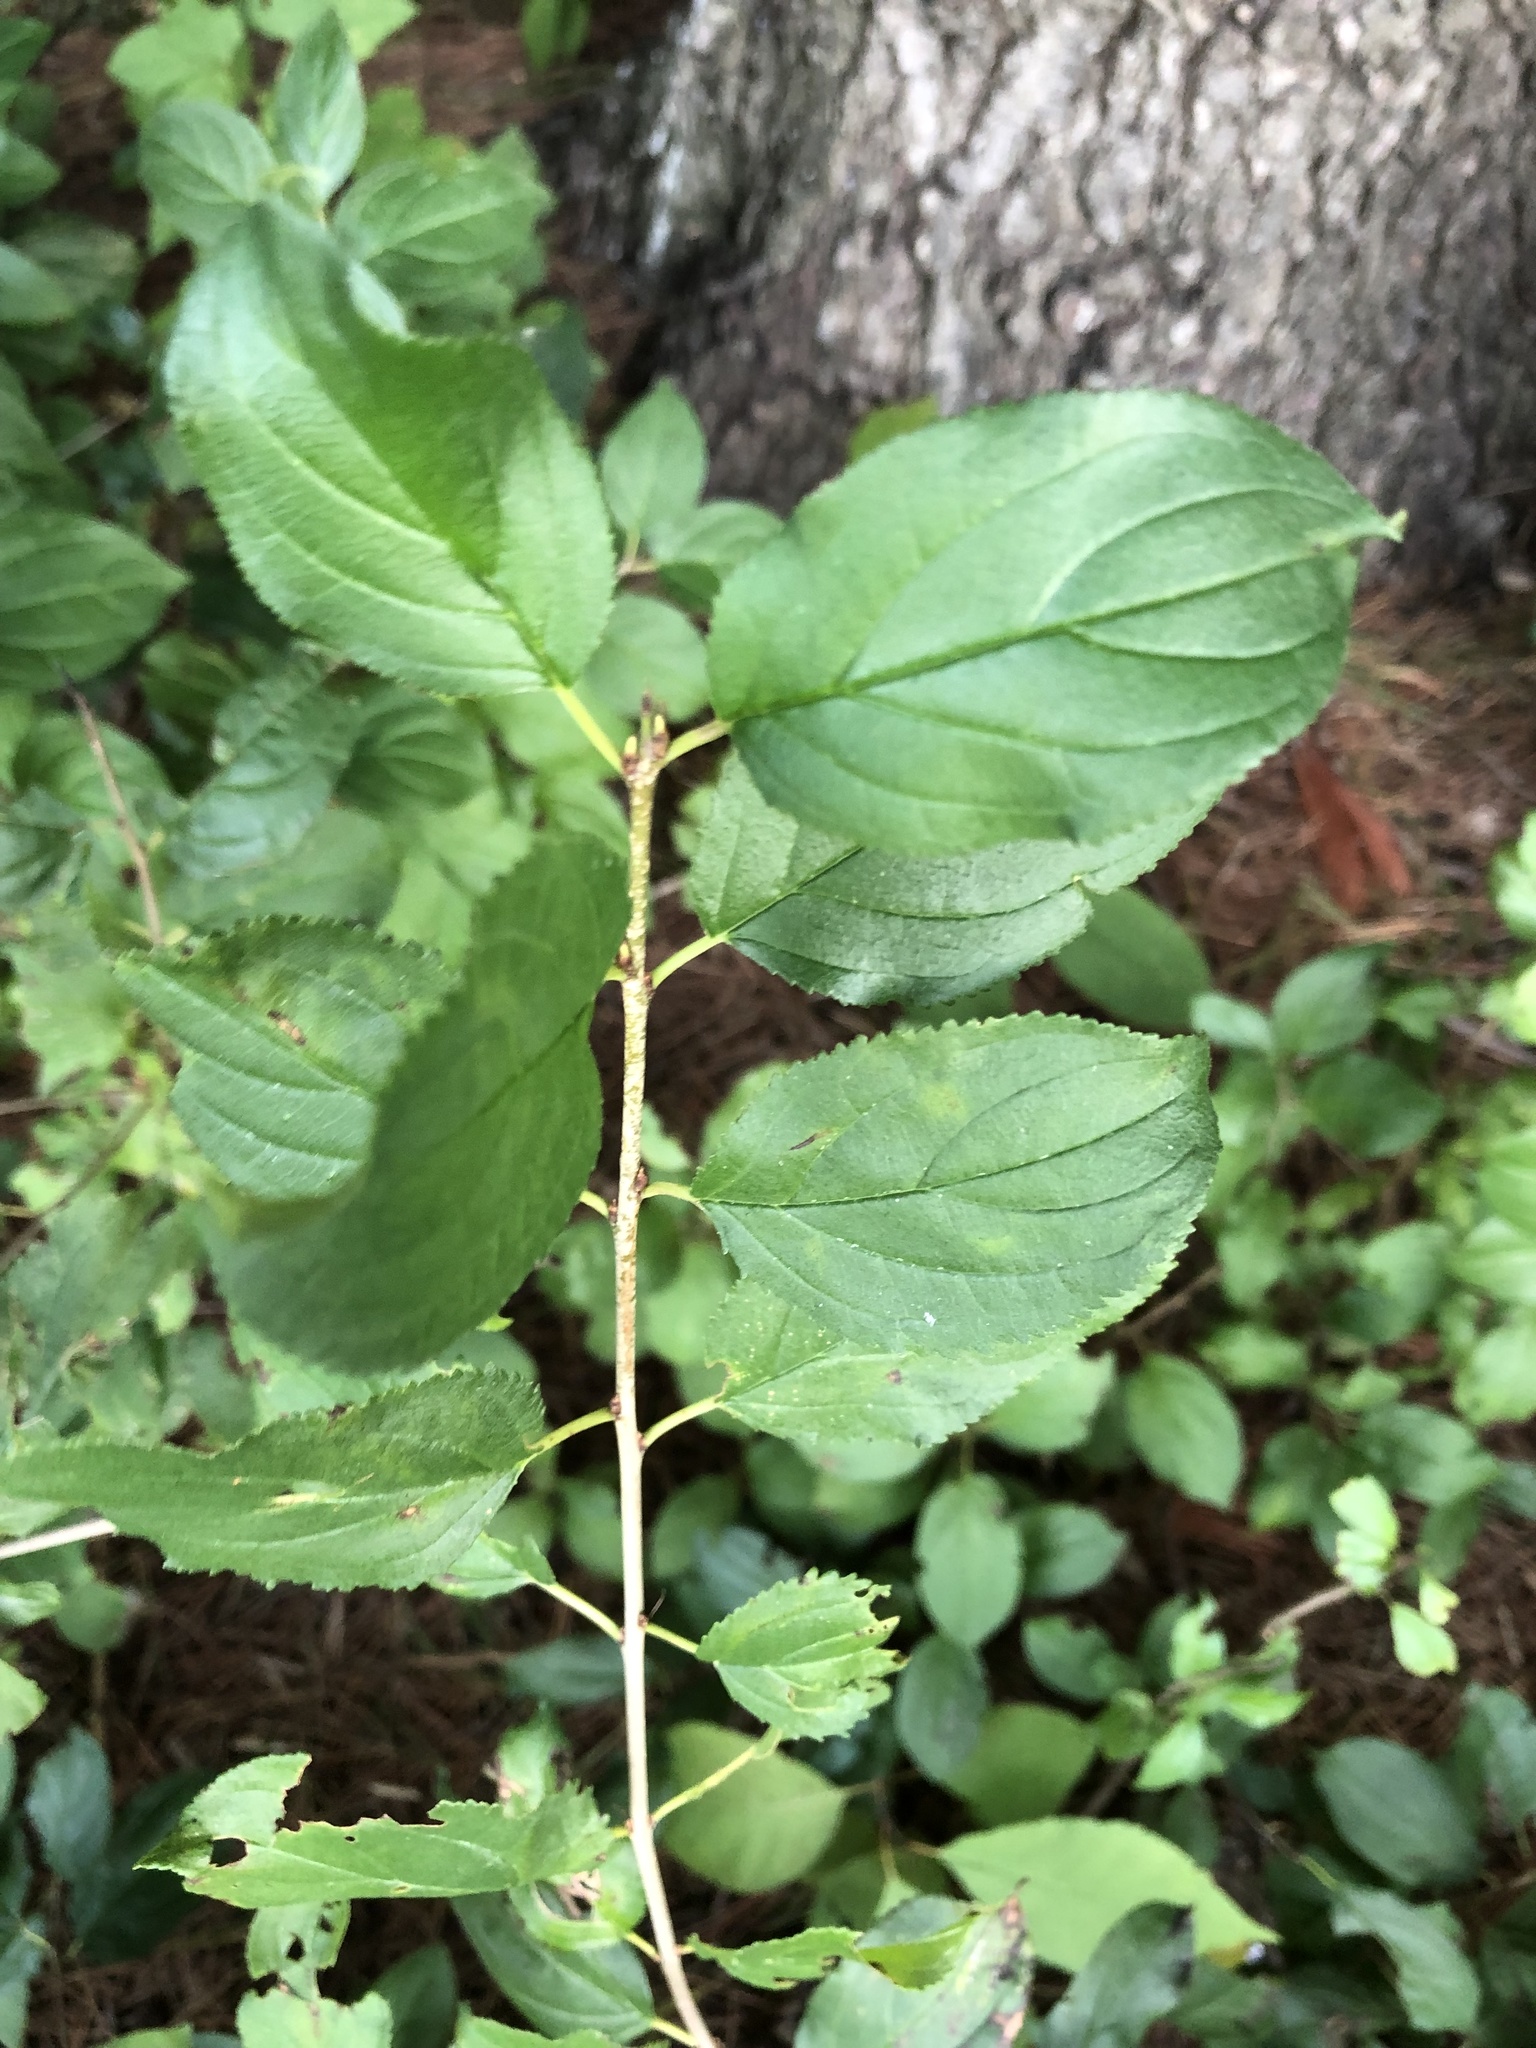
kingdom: Plantae
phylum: Tracheophyta
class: Magnoliopsida
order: Rosales
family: Rhamnaceae
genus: Rhamnus
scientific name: Rhamnus cathartica
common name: Common buckthorn
